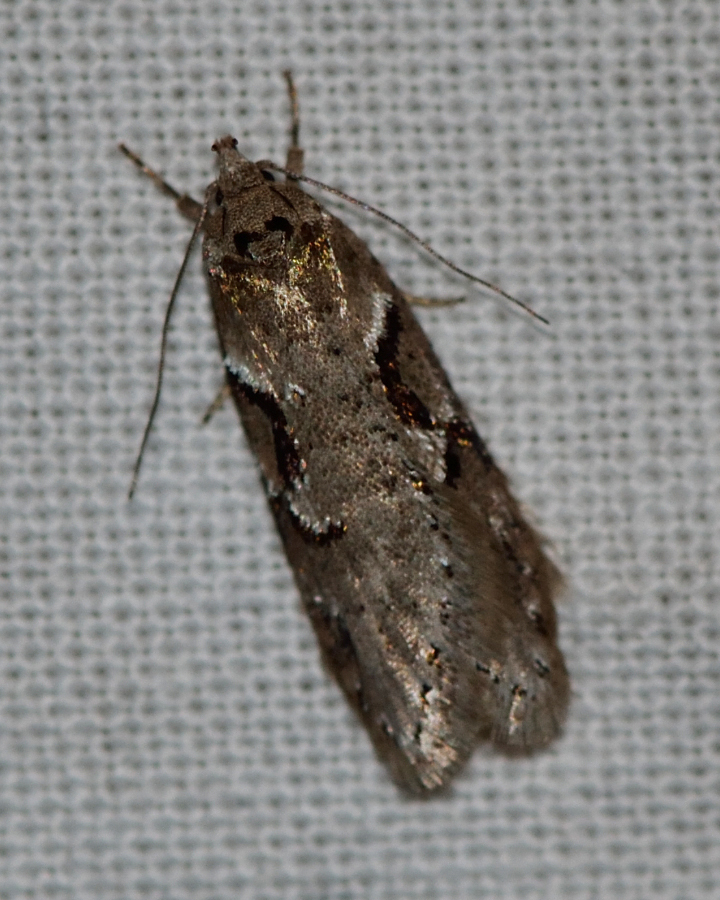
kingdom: Animalia
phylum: Arthropoda
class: Insecta
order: Lepidoptera
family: Depressariidae
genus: Semioscopis
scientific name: Semioscopis steinkellneriana
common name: Dawn flat-body
